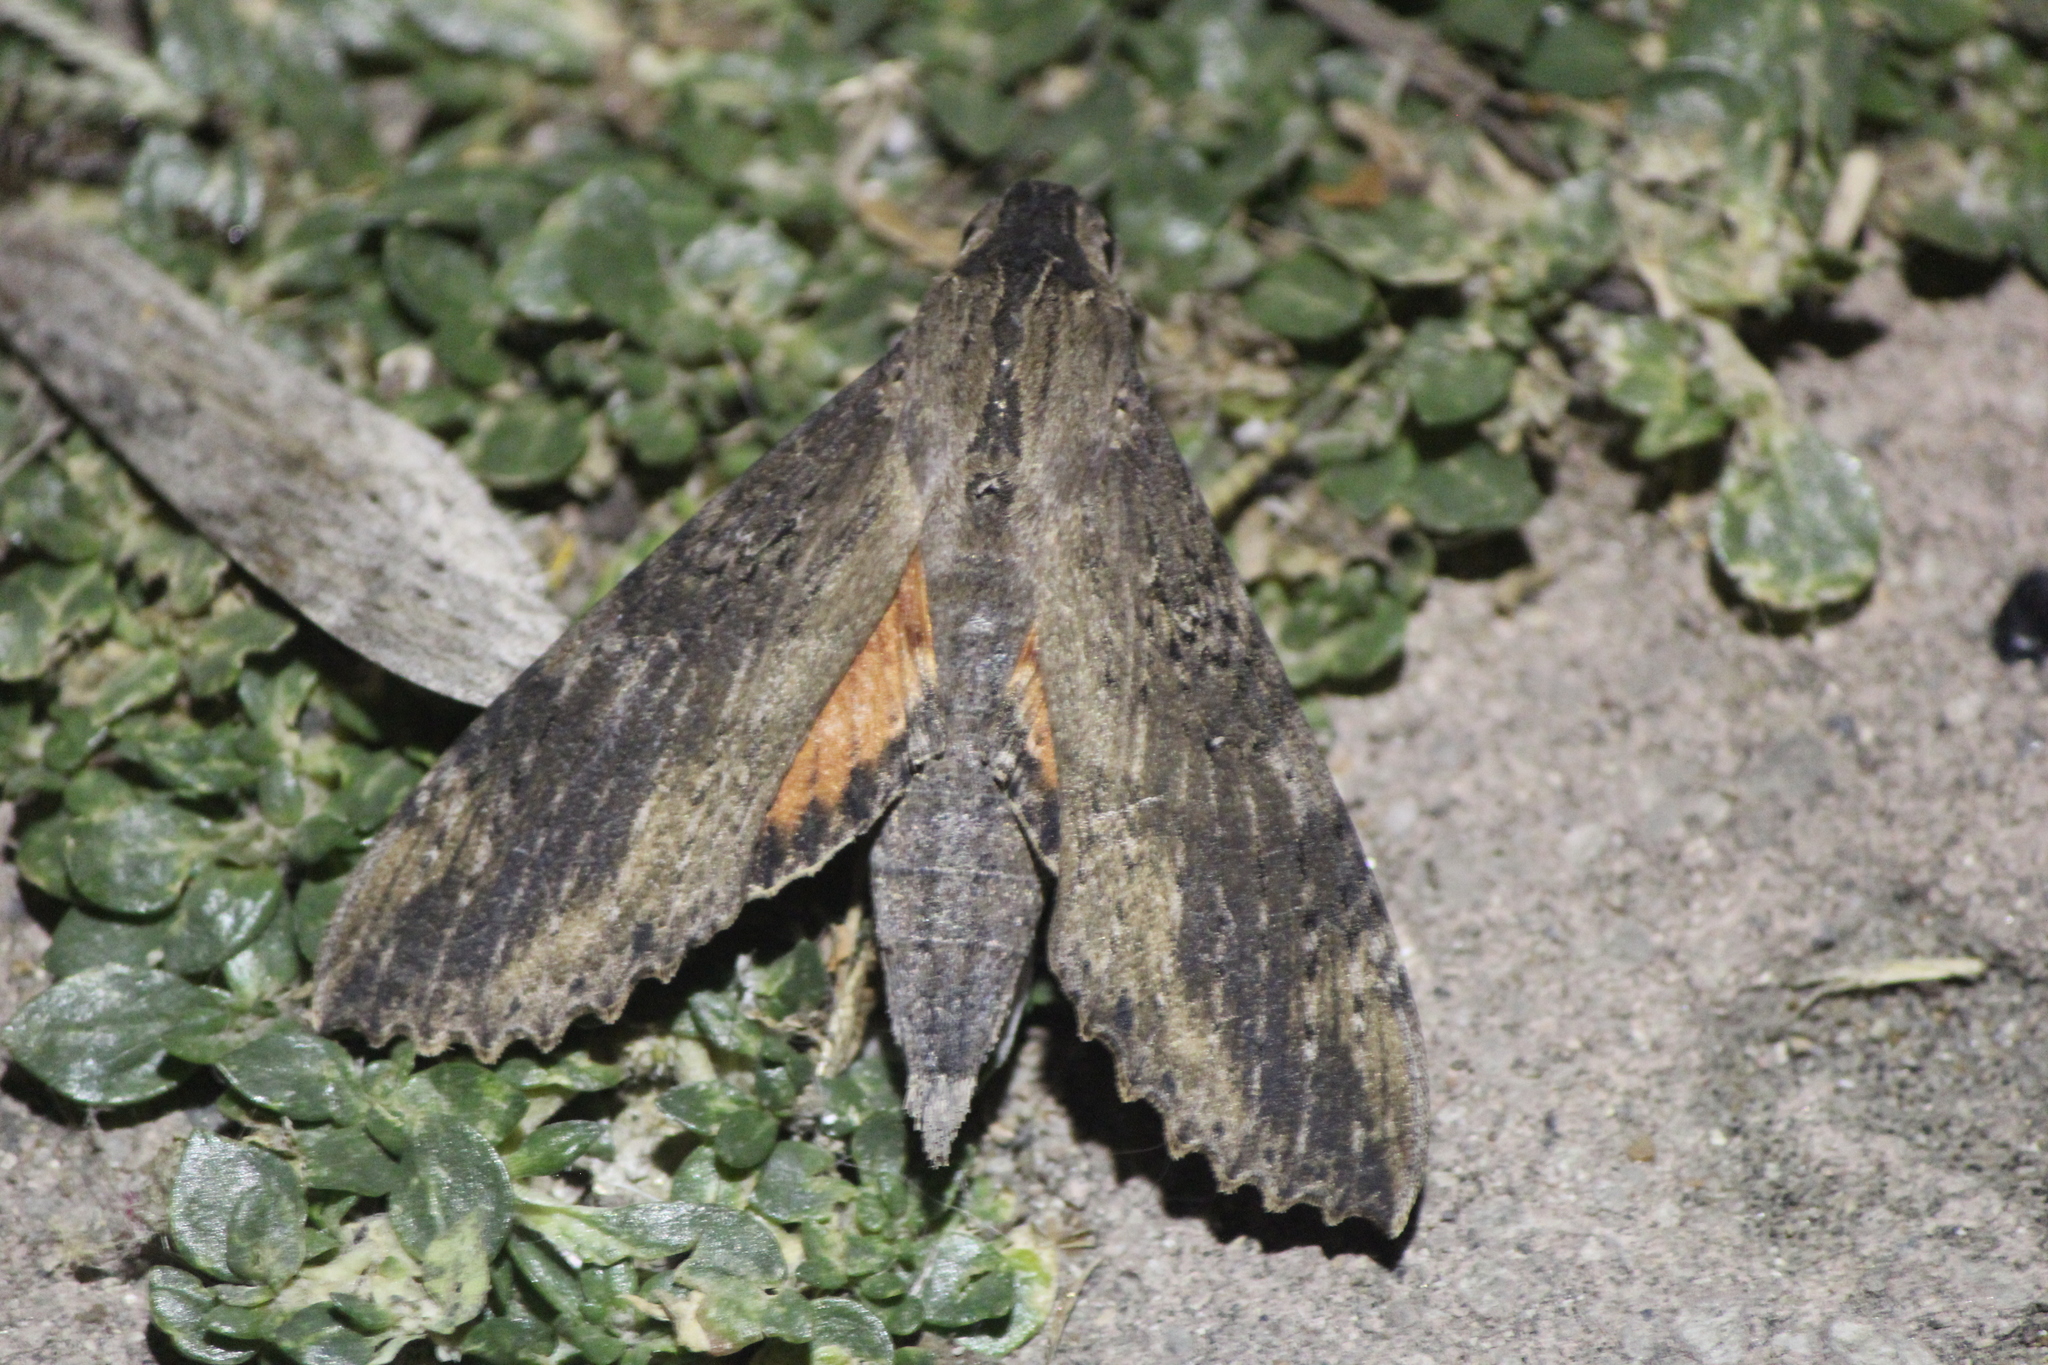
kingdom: Animalia
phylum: Arthropoda
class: Insecta
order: Lepidoptera
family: Sphingidae
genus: Erinnyis
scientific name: Erinnyis lassauxi
